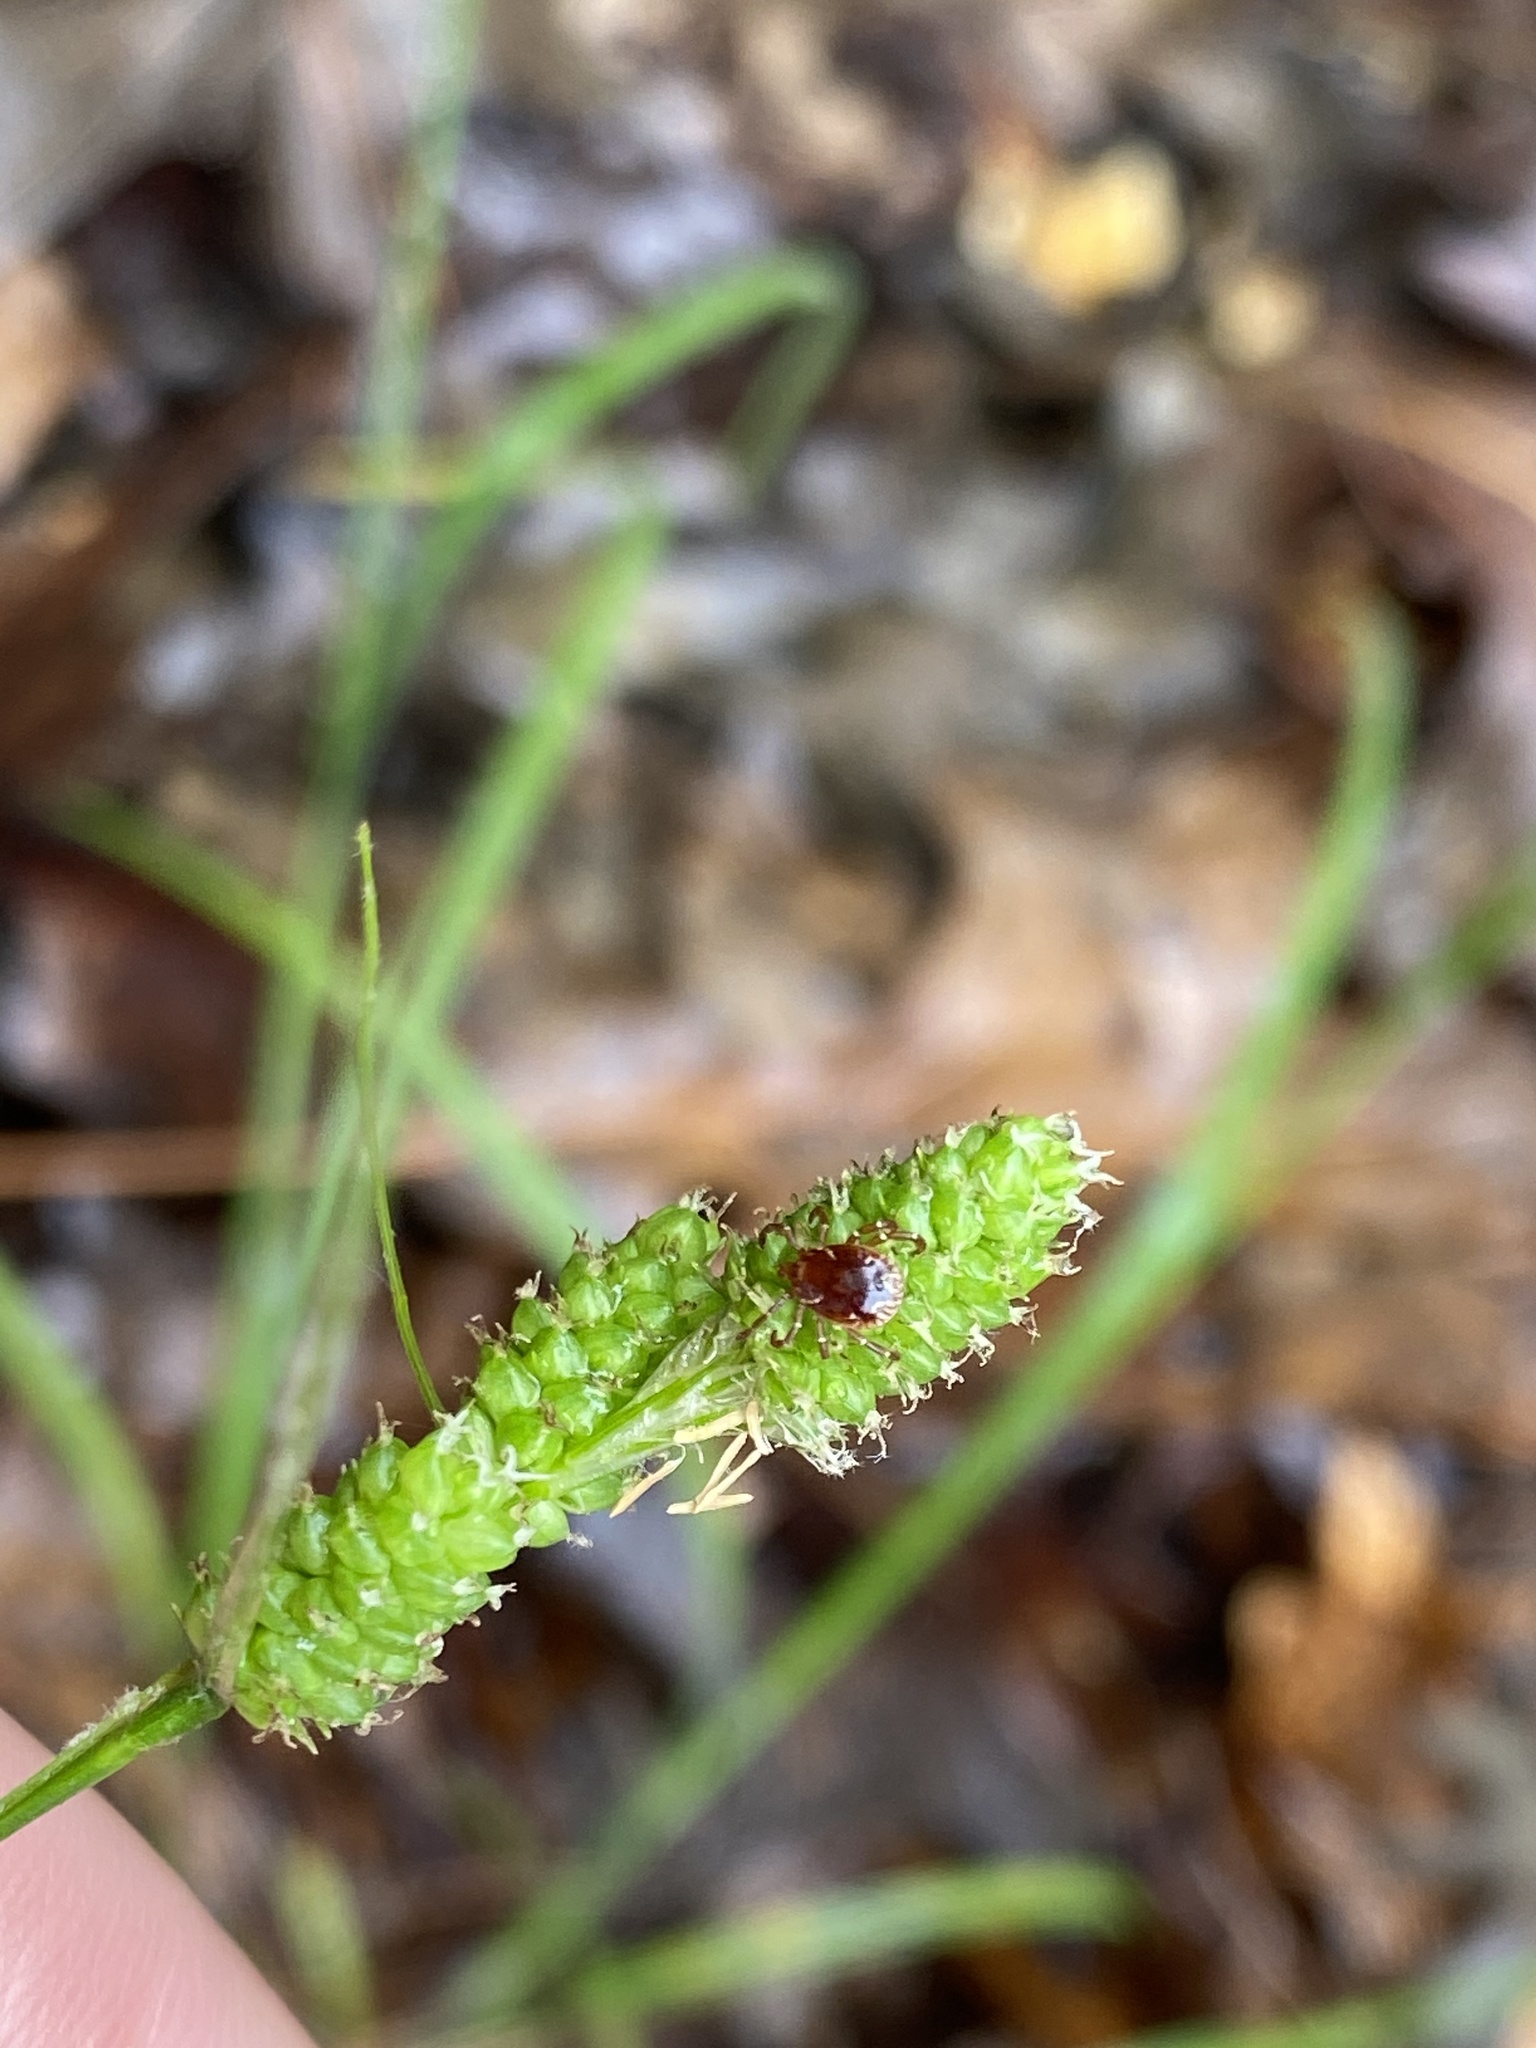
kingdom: Animalia
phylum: Arthropoda
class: Arachnida
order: Ixodida
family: Ixodidae
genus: Amblyomma
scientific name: Amblyomma americanum
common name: Lone star tick
